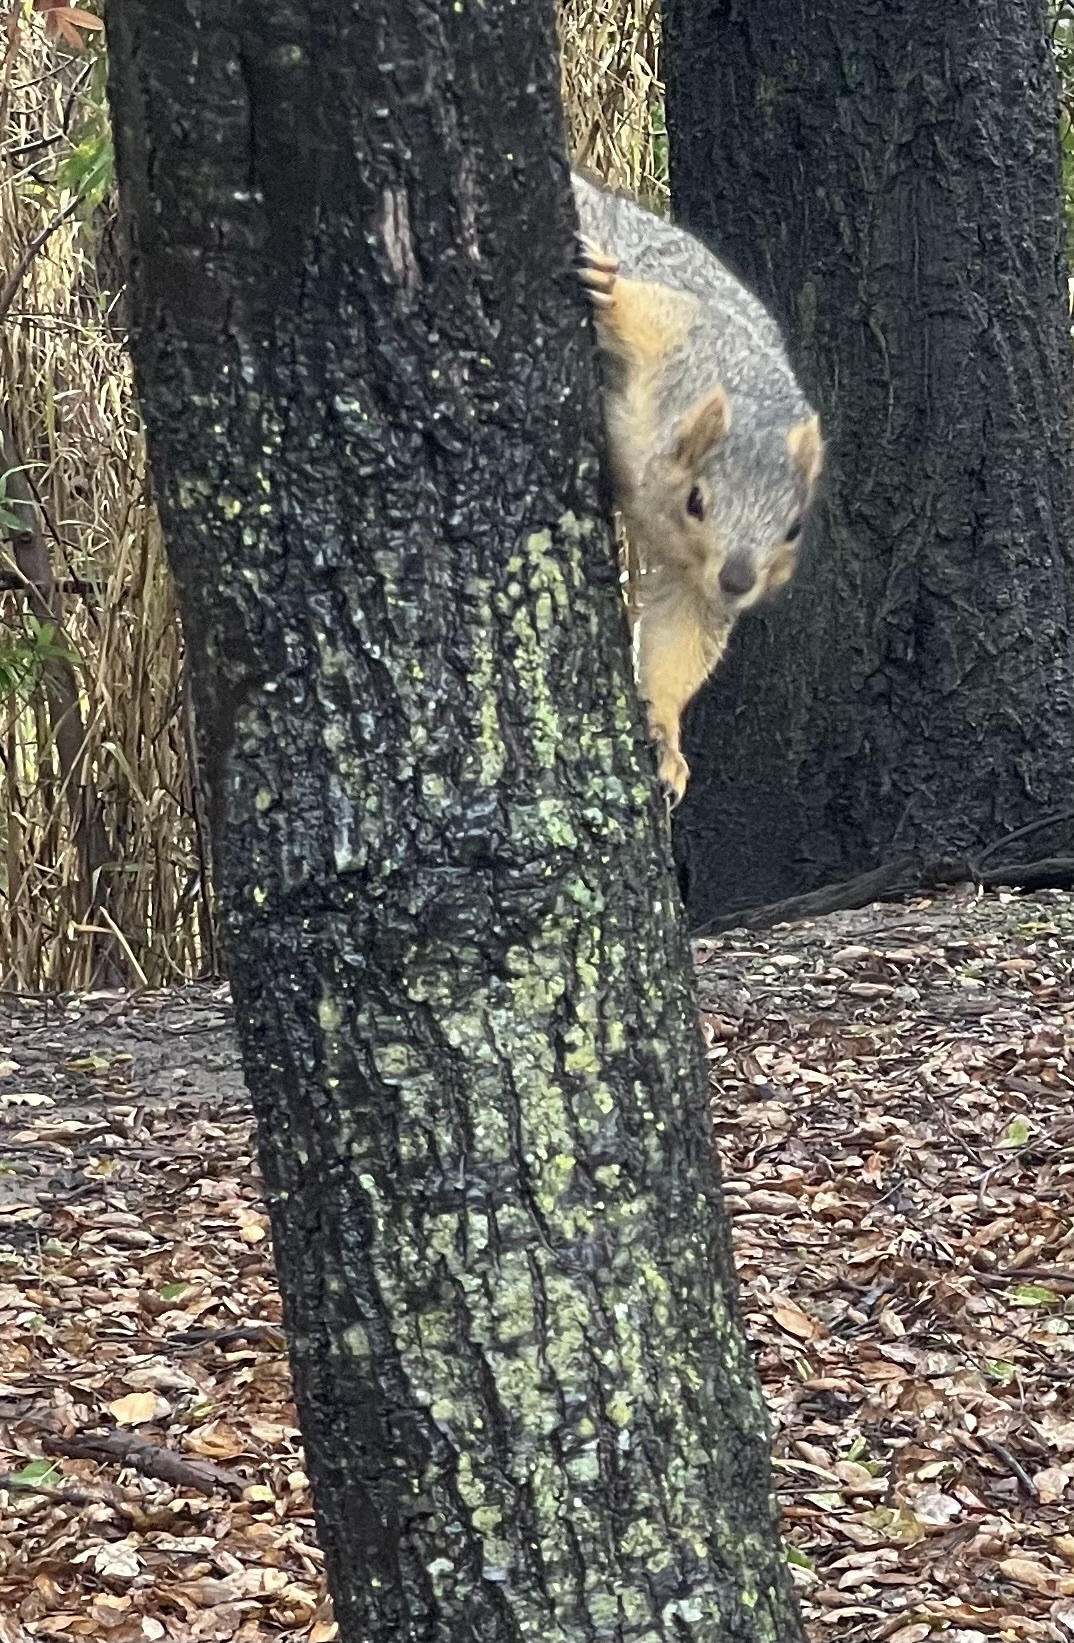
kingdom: Animalia
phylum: Chordata
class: Mammalia
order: Rodentia
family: Sciuridae
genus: Sciurus
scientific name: Sciurus niger
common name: Fox squirrel
